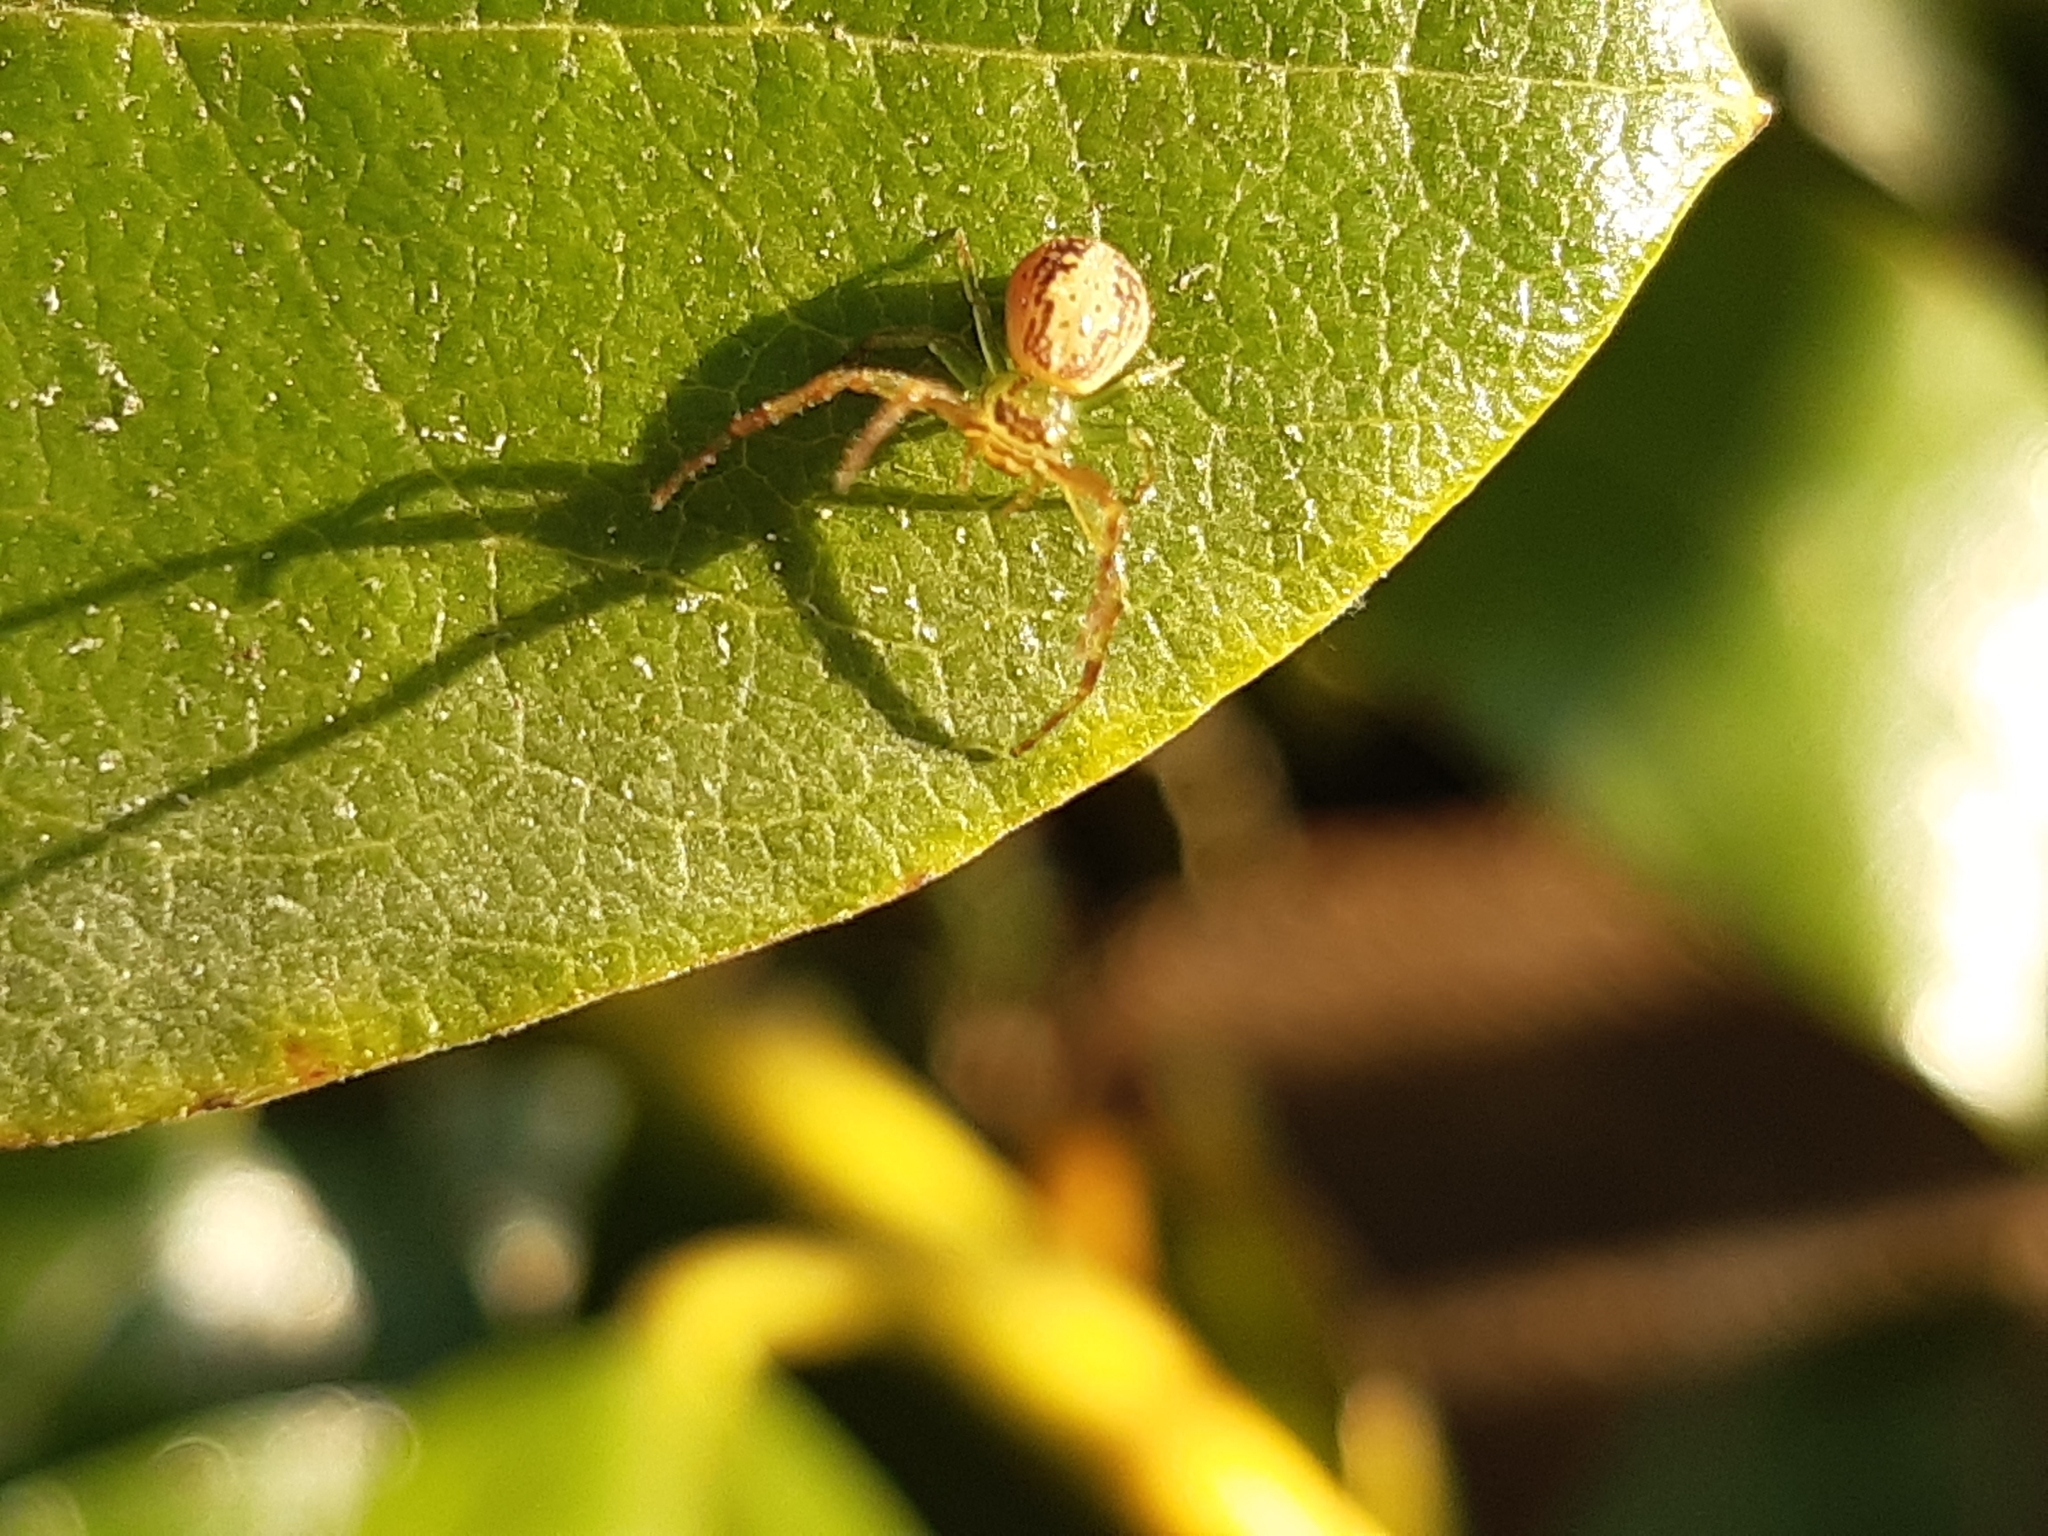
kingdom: Animalia
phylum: Arthropoda
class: Arachnida
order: Araneae
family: Thomisidae
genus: Diaea
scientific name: Diaea ambara
